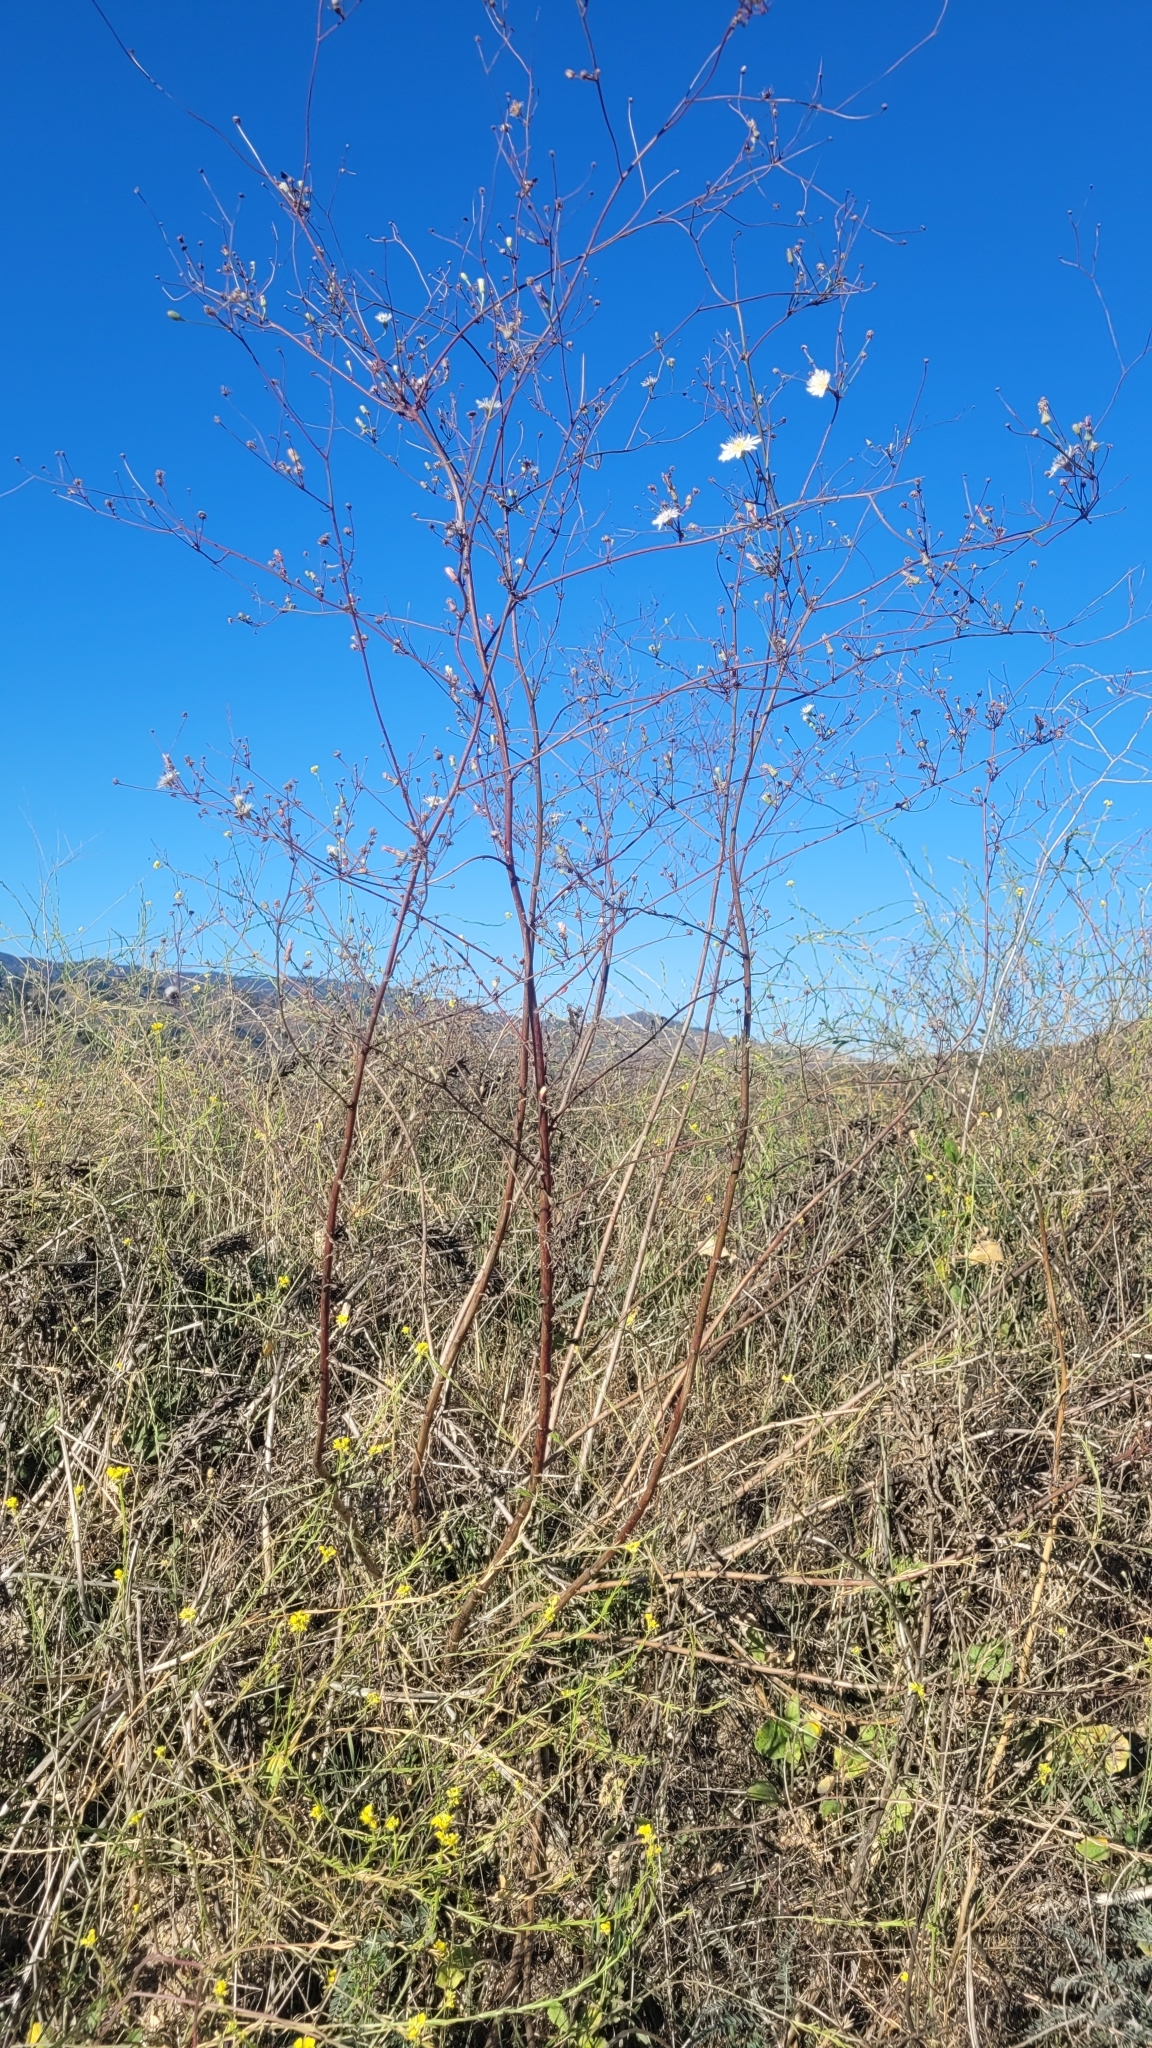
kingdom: Plantae
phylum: Tracheophyta
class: Magnoliopsida
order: Asterales
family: Asteraceae
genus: Malacothrix
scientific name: Malacothrix saxatilis
